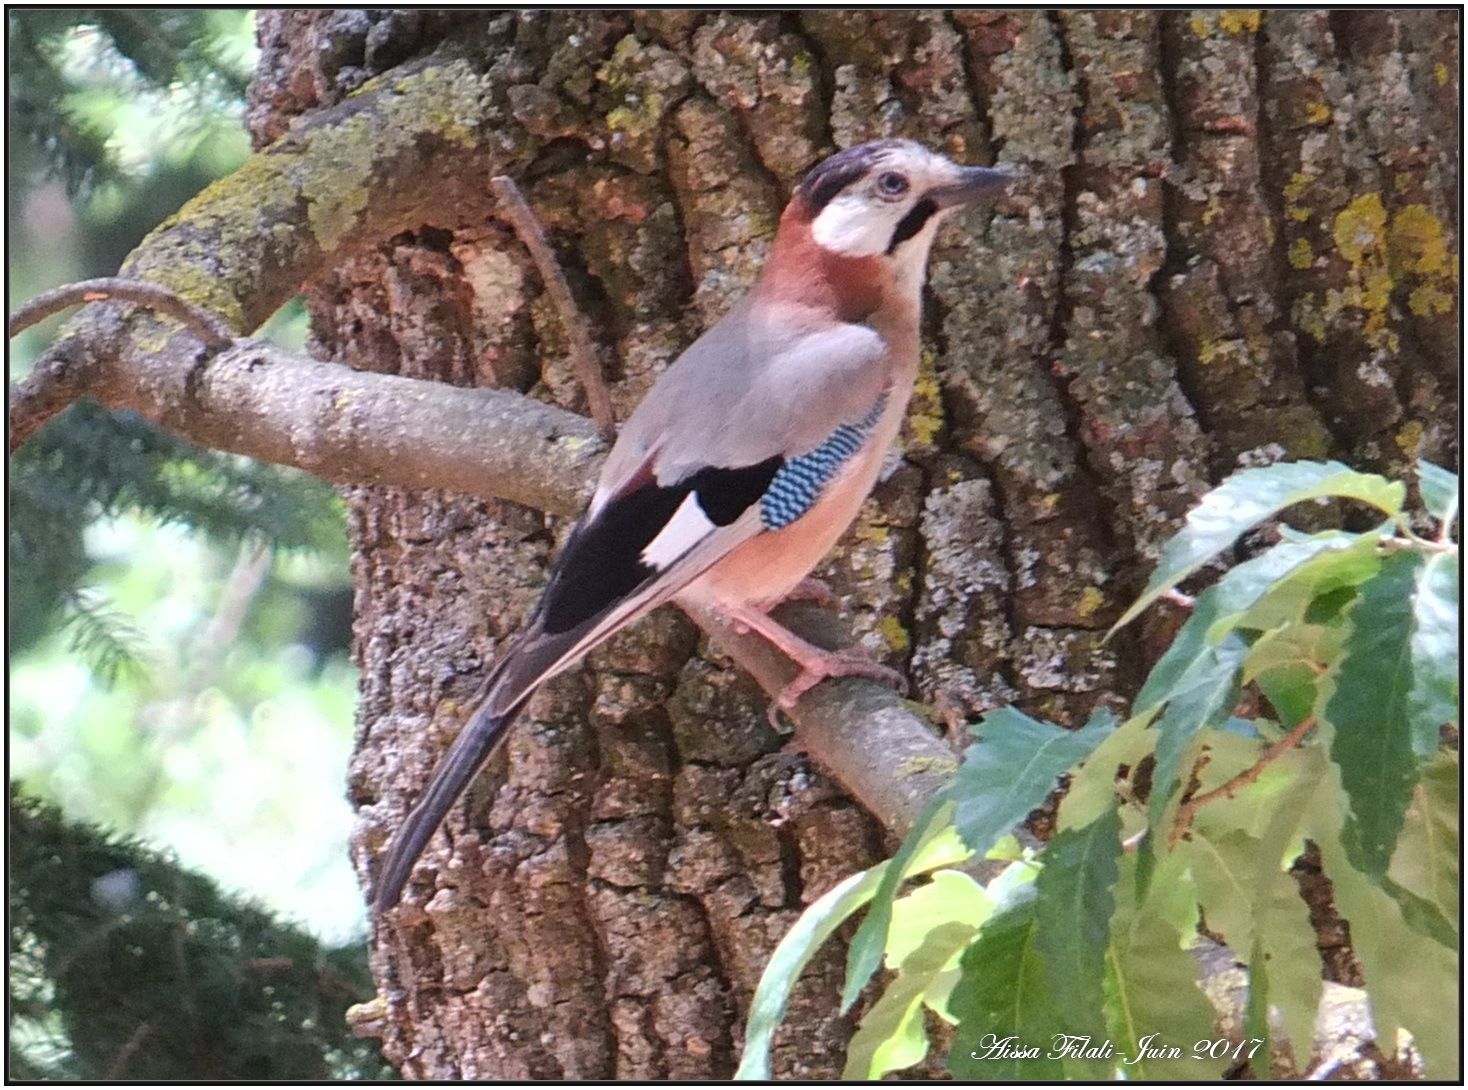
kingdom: Animalia
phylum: Chordata
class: Aves
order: Passeriformes
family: Corvidae
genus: Garrulus
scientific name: Garrulus glandarius
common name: Eurasian jay
